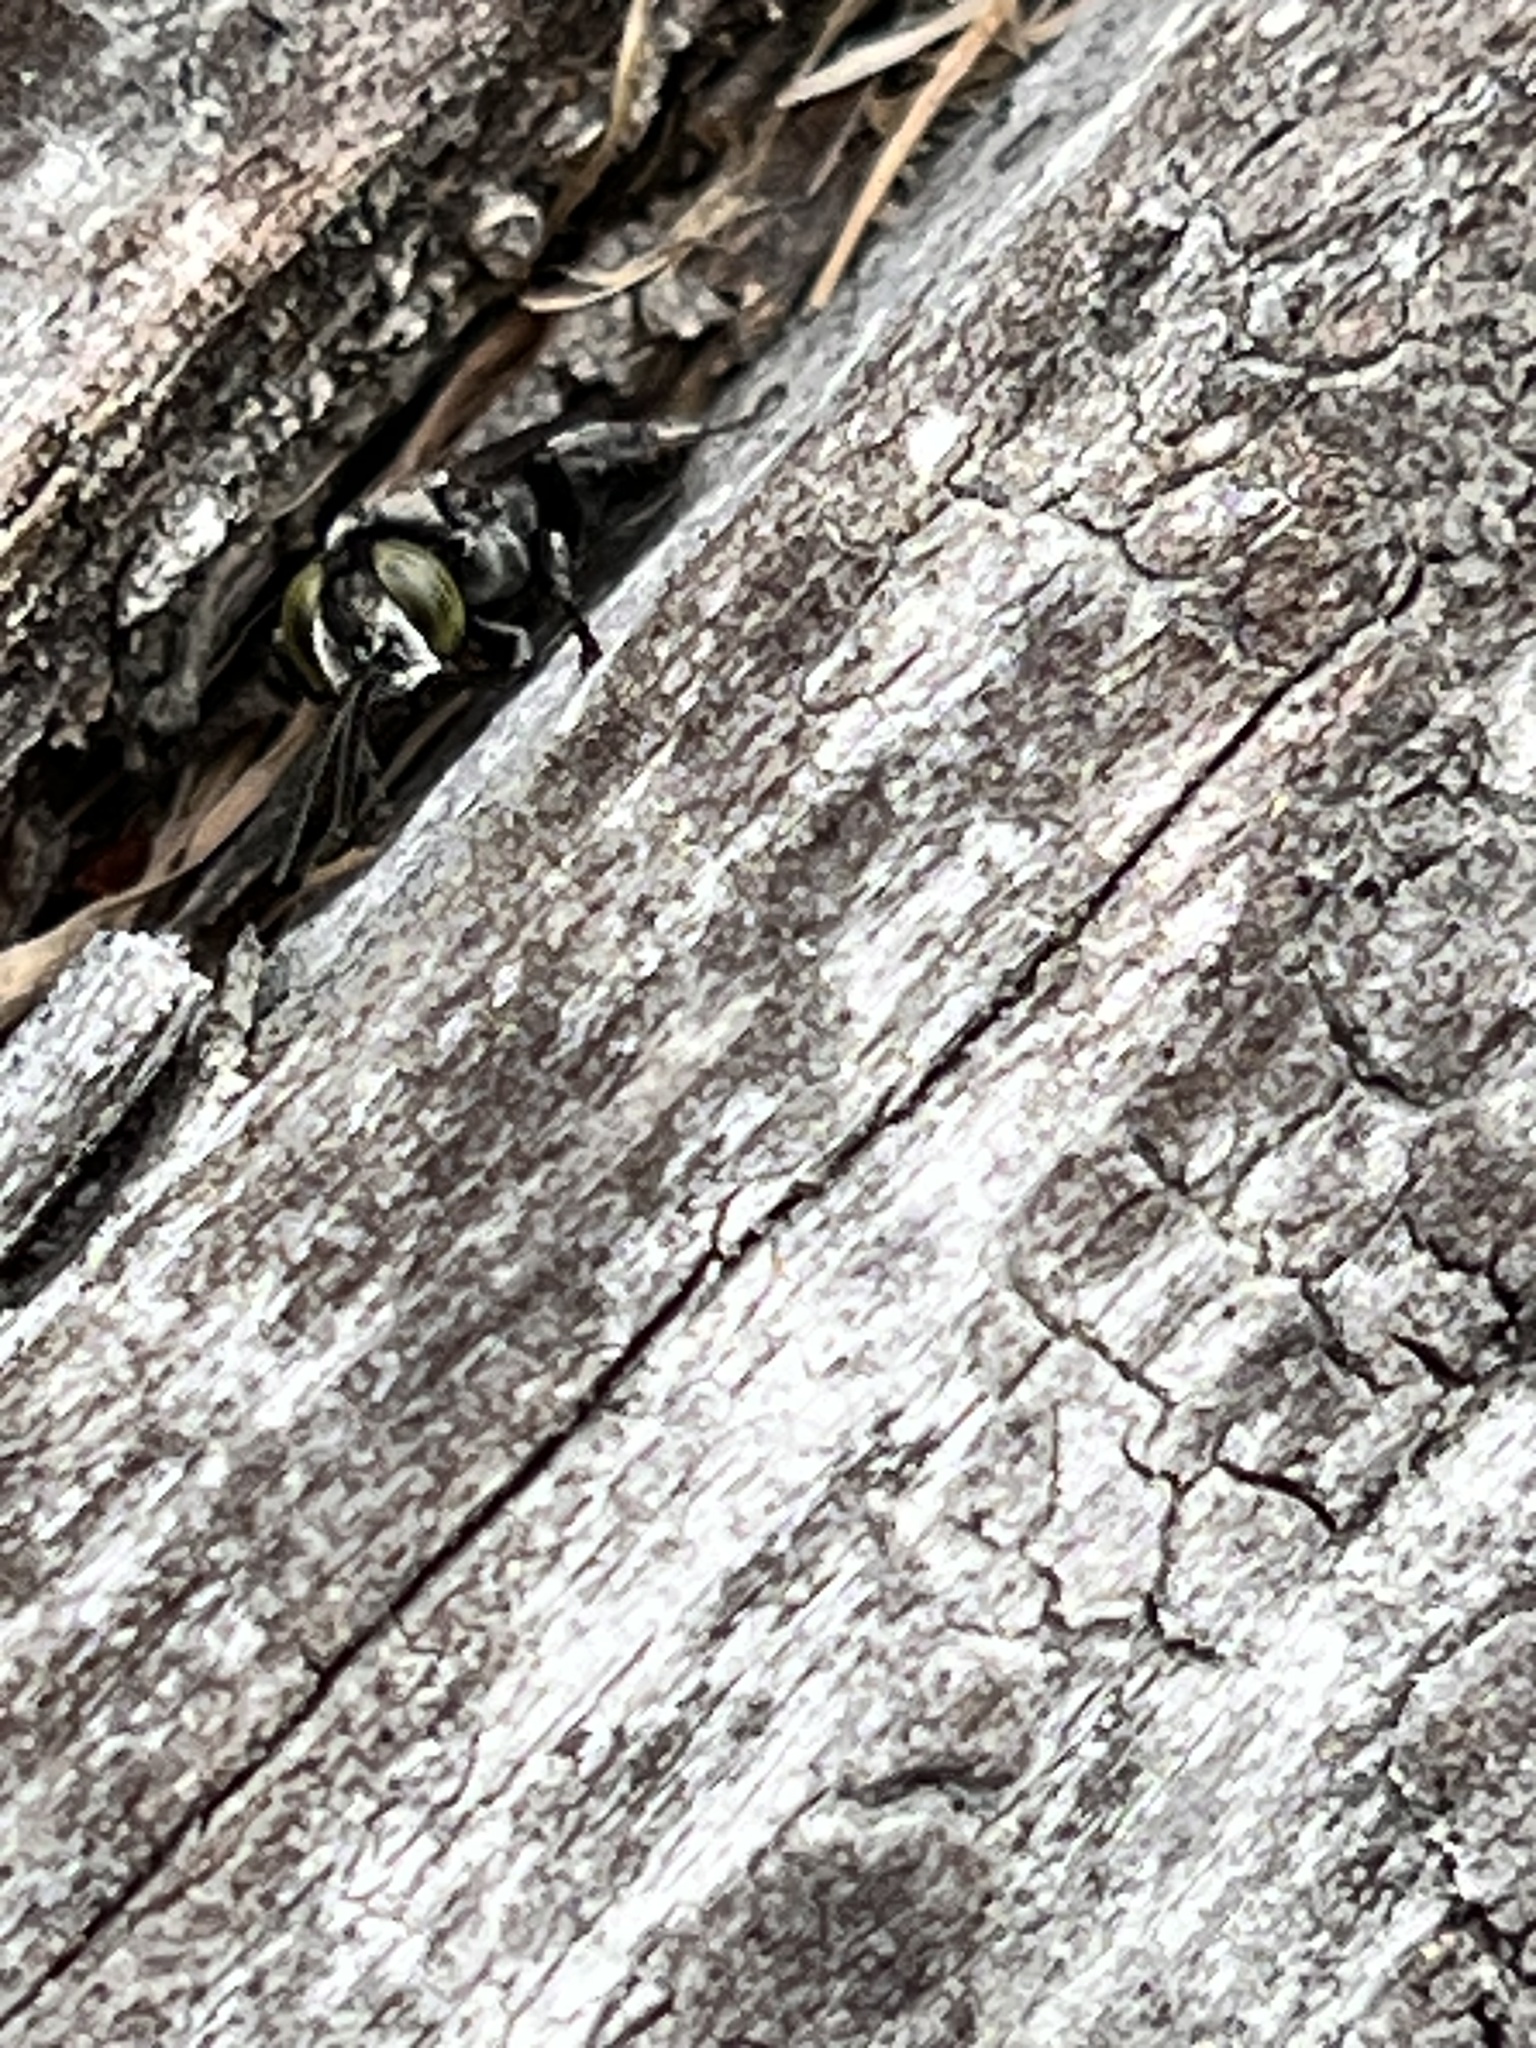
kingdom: Animalia
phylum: Arthropoda
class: Insecta
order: Hymenoptera
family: Crabronidae
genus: Tachysphex
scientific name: Tachysphex nigerrimus
